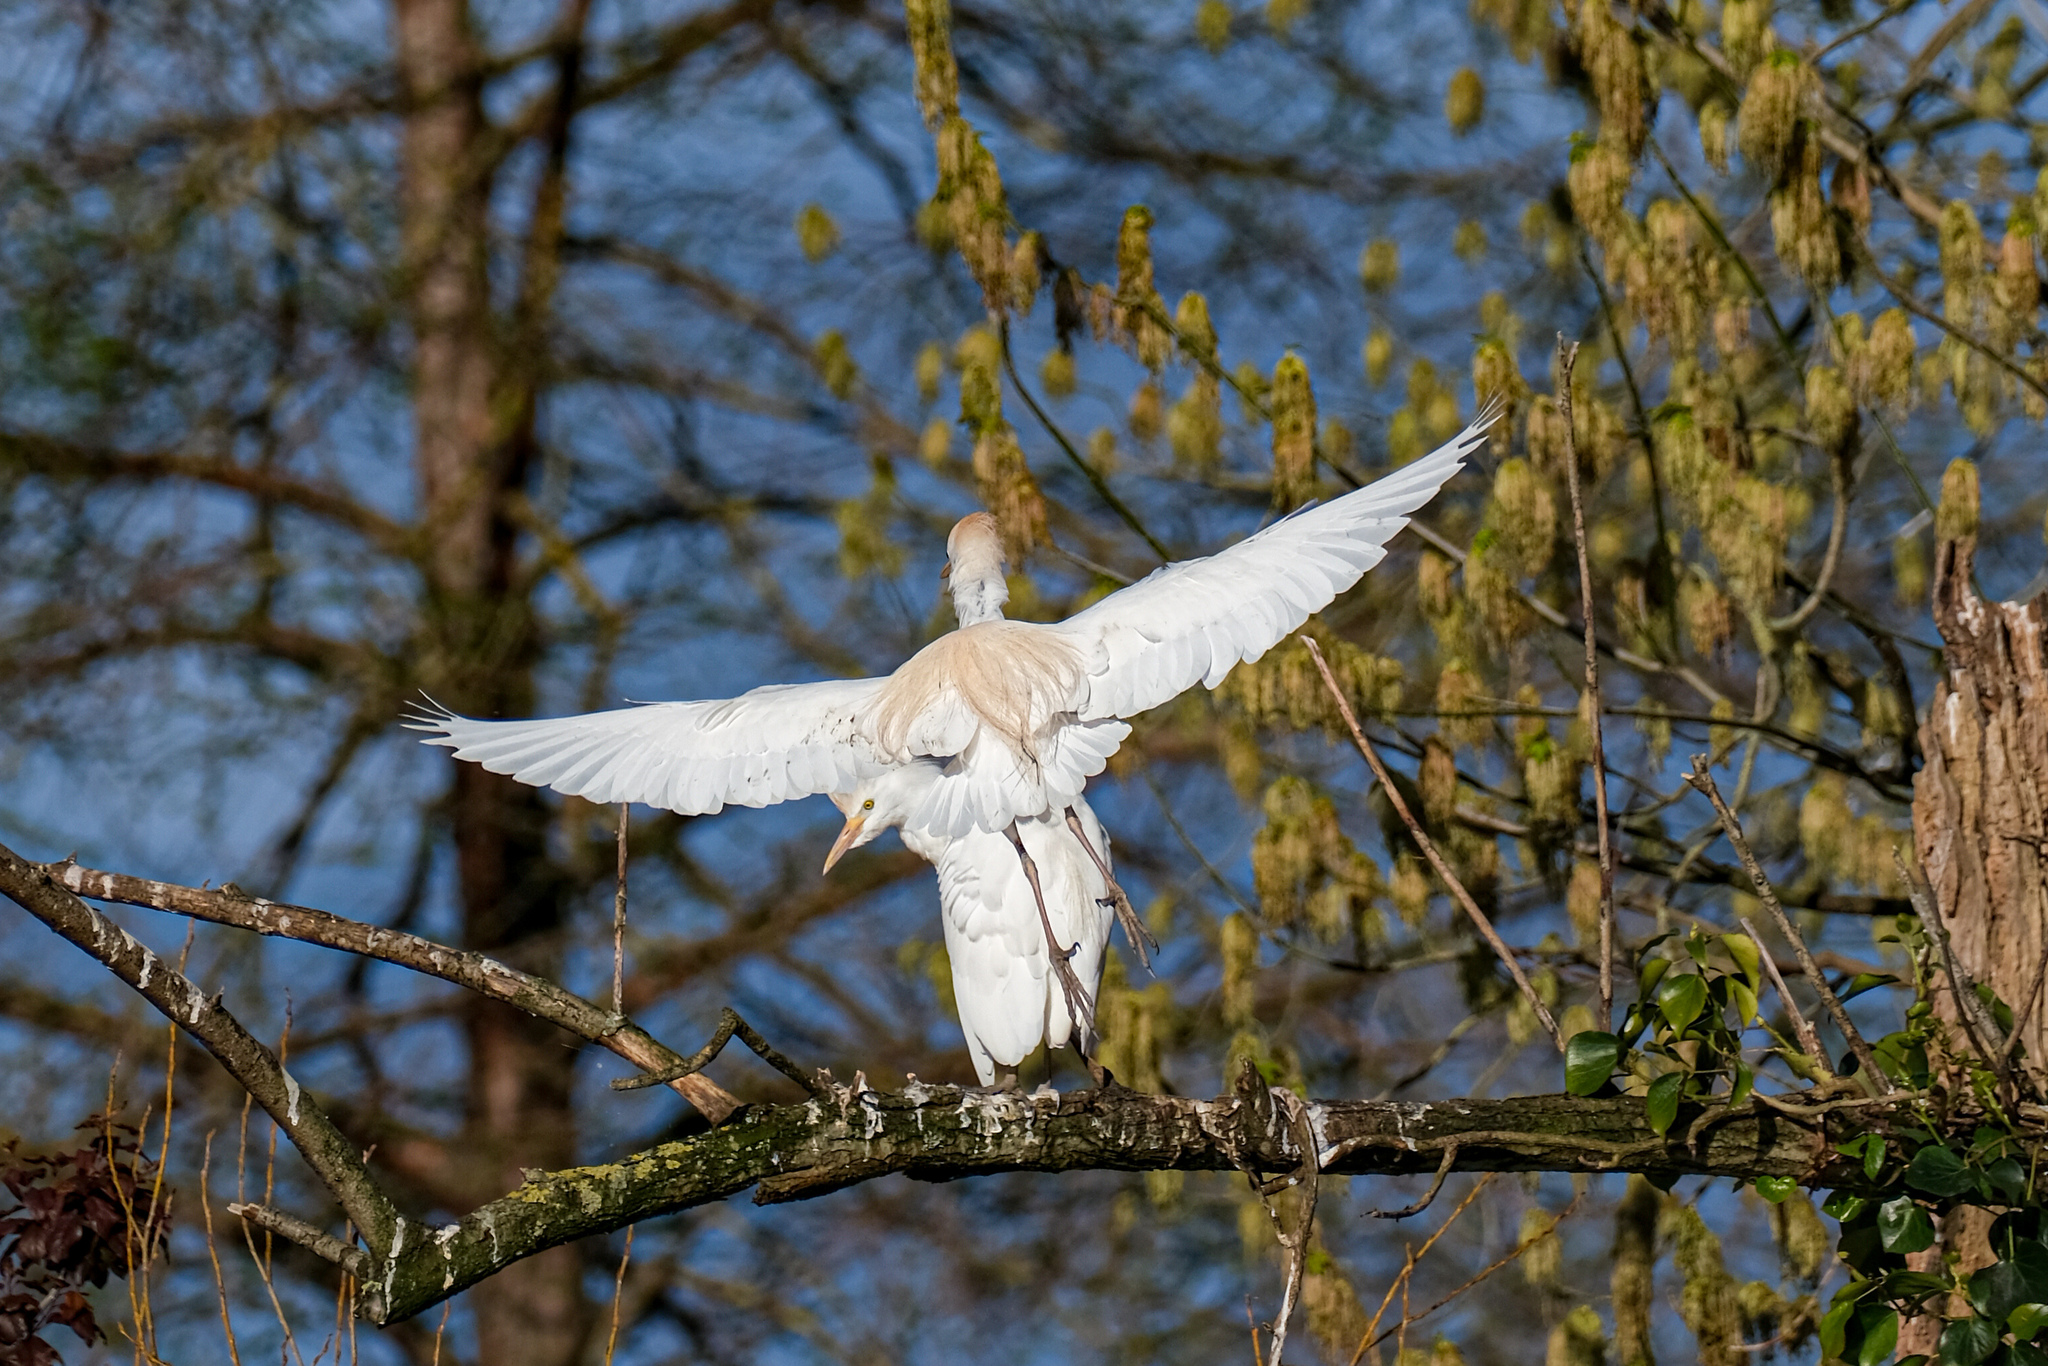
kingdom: Animalia
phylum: Chordata
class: Aves
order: Pelecaniformes
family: Ardeidae
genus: Bubulcus
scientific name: Bubulcus ibis
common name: Cattle egret
